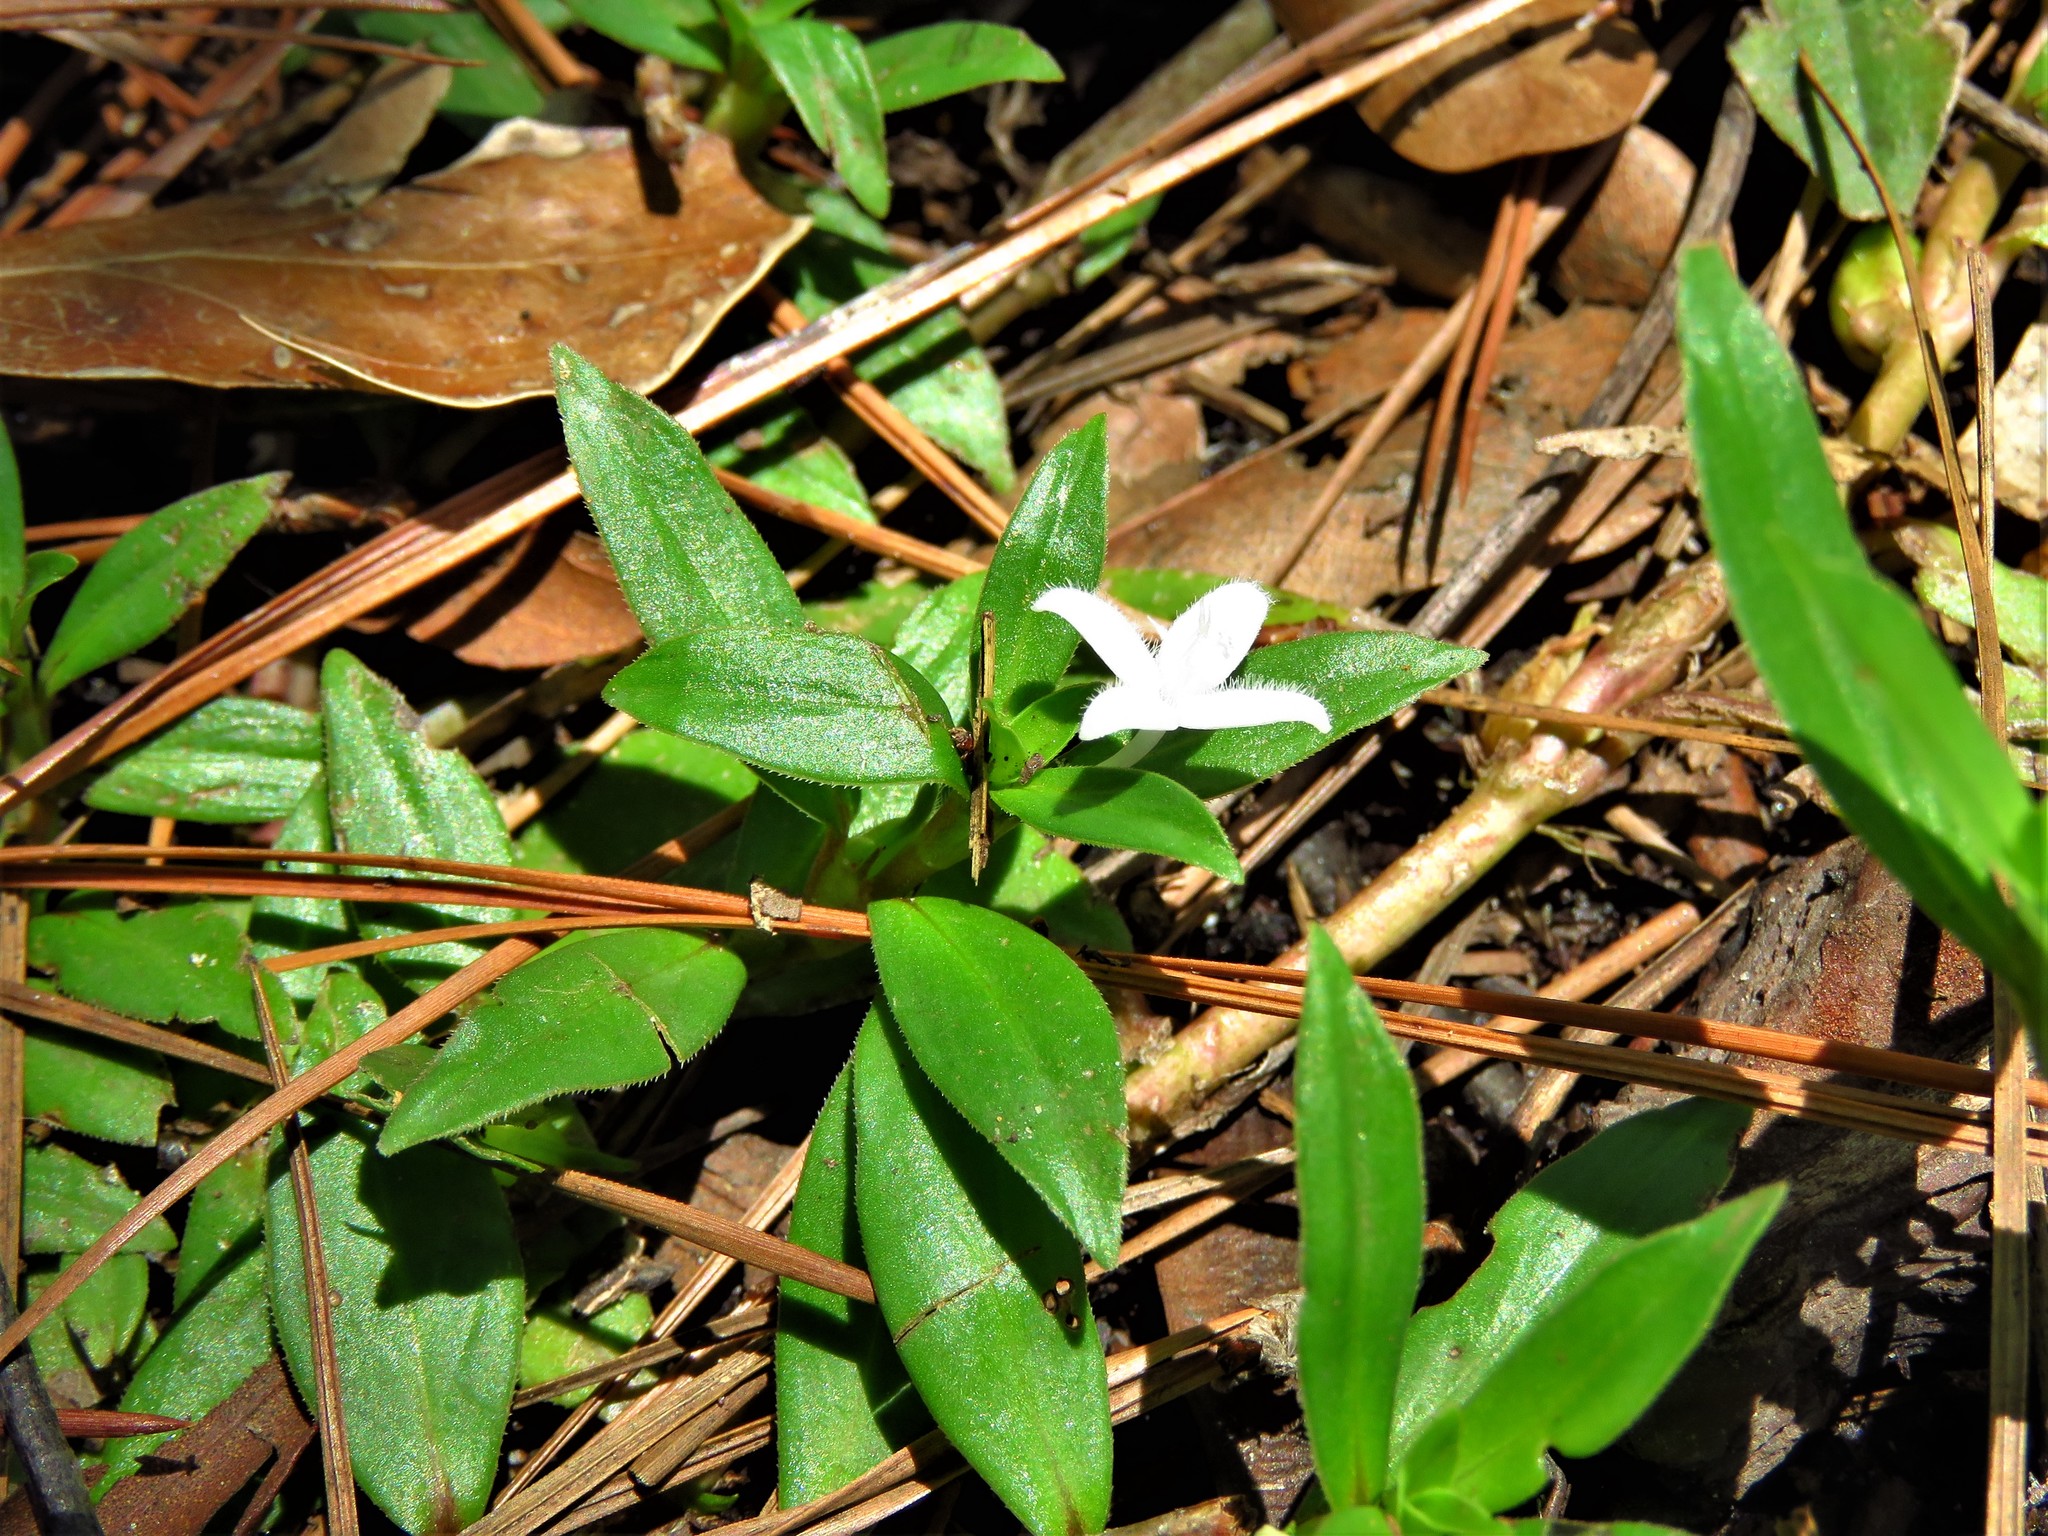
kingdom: Plantae
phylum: Tracheophyta
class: Magnoliopsida
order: Gentianales
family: Rubiaceae
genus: Diodia
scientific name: Diodia virginiana
